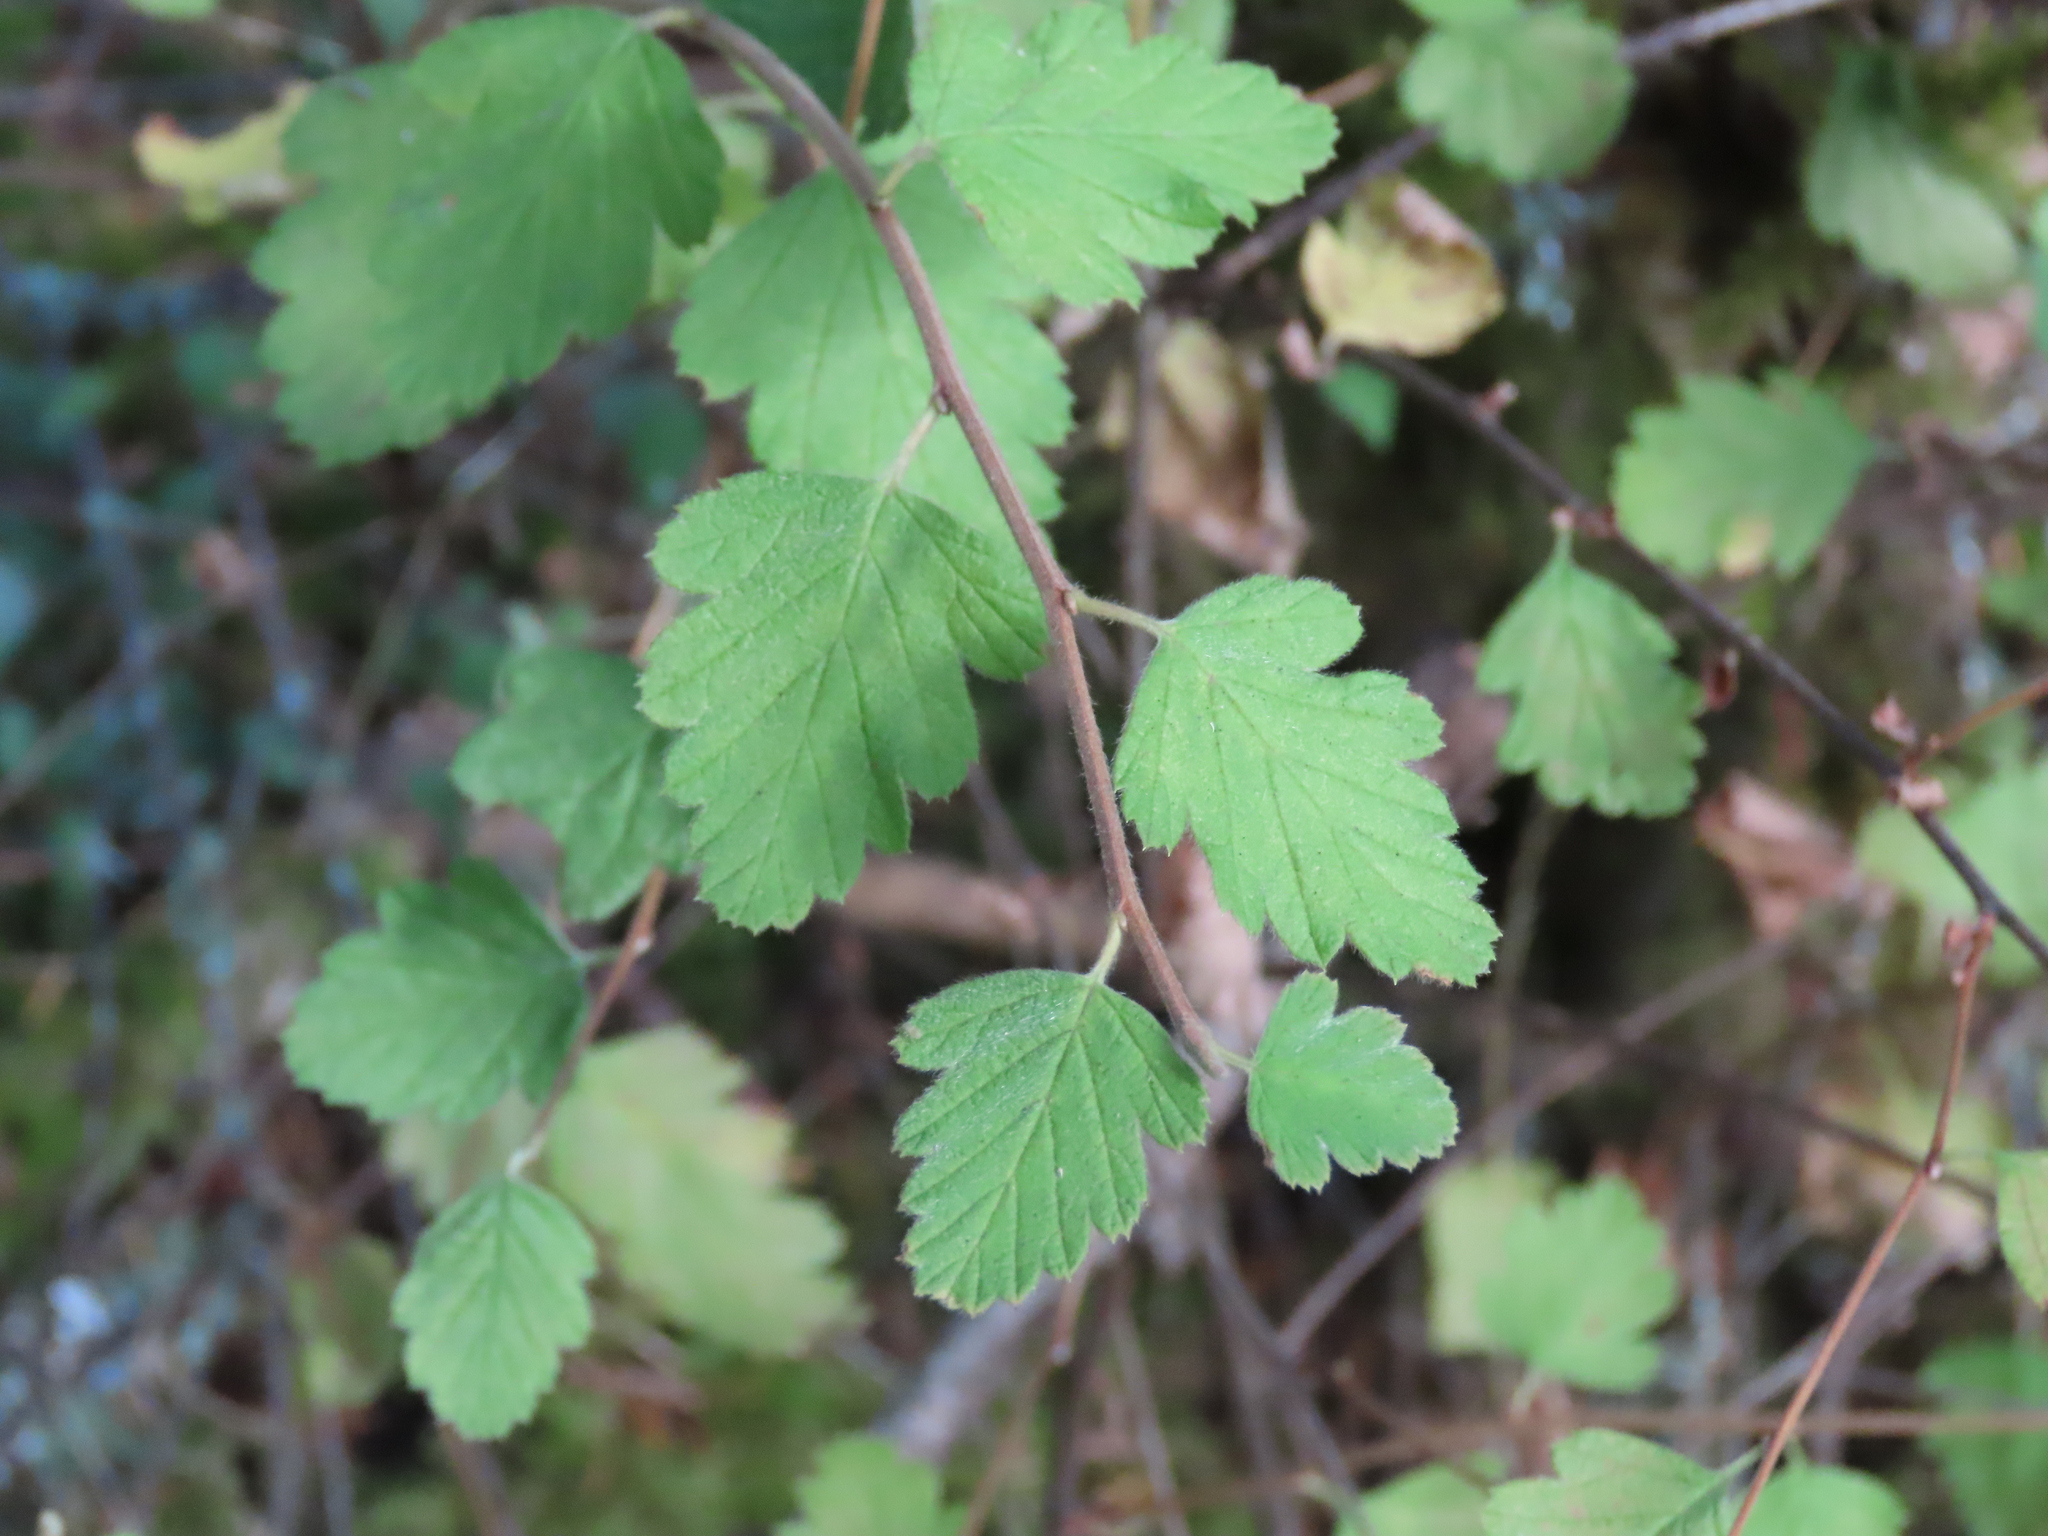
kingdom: Plantae
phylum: Tracheophyta
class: Magnoliopsida
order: Rosales
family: Rosaceae
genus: Holodiscus
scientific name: Holodiscus discolor
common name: Oceanspray
